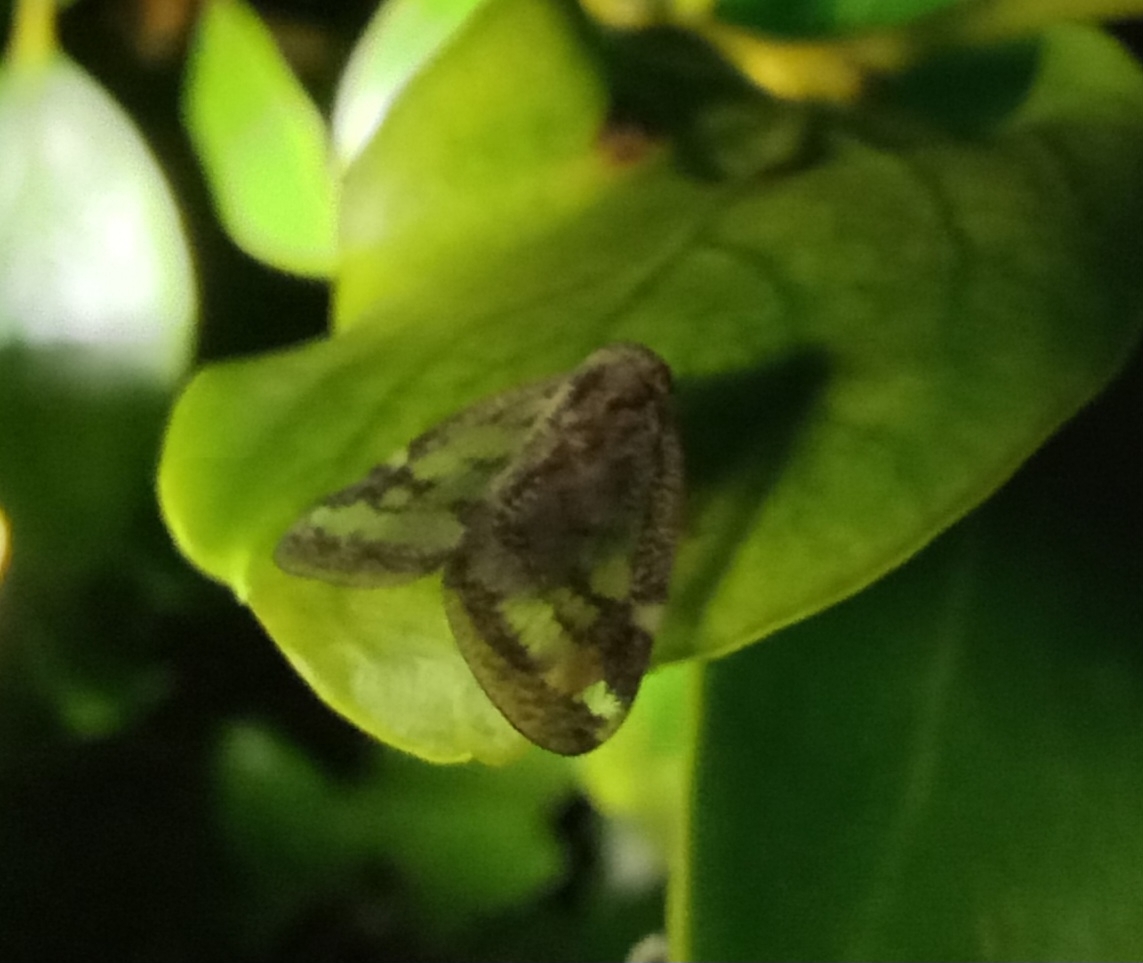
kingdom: Animalia
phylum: Arthropoda
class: Insecta
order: Hemiptera
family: Ricaniidae
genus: Scolypopa
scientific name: Scolypopa australis
